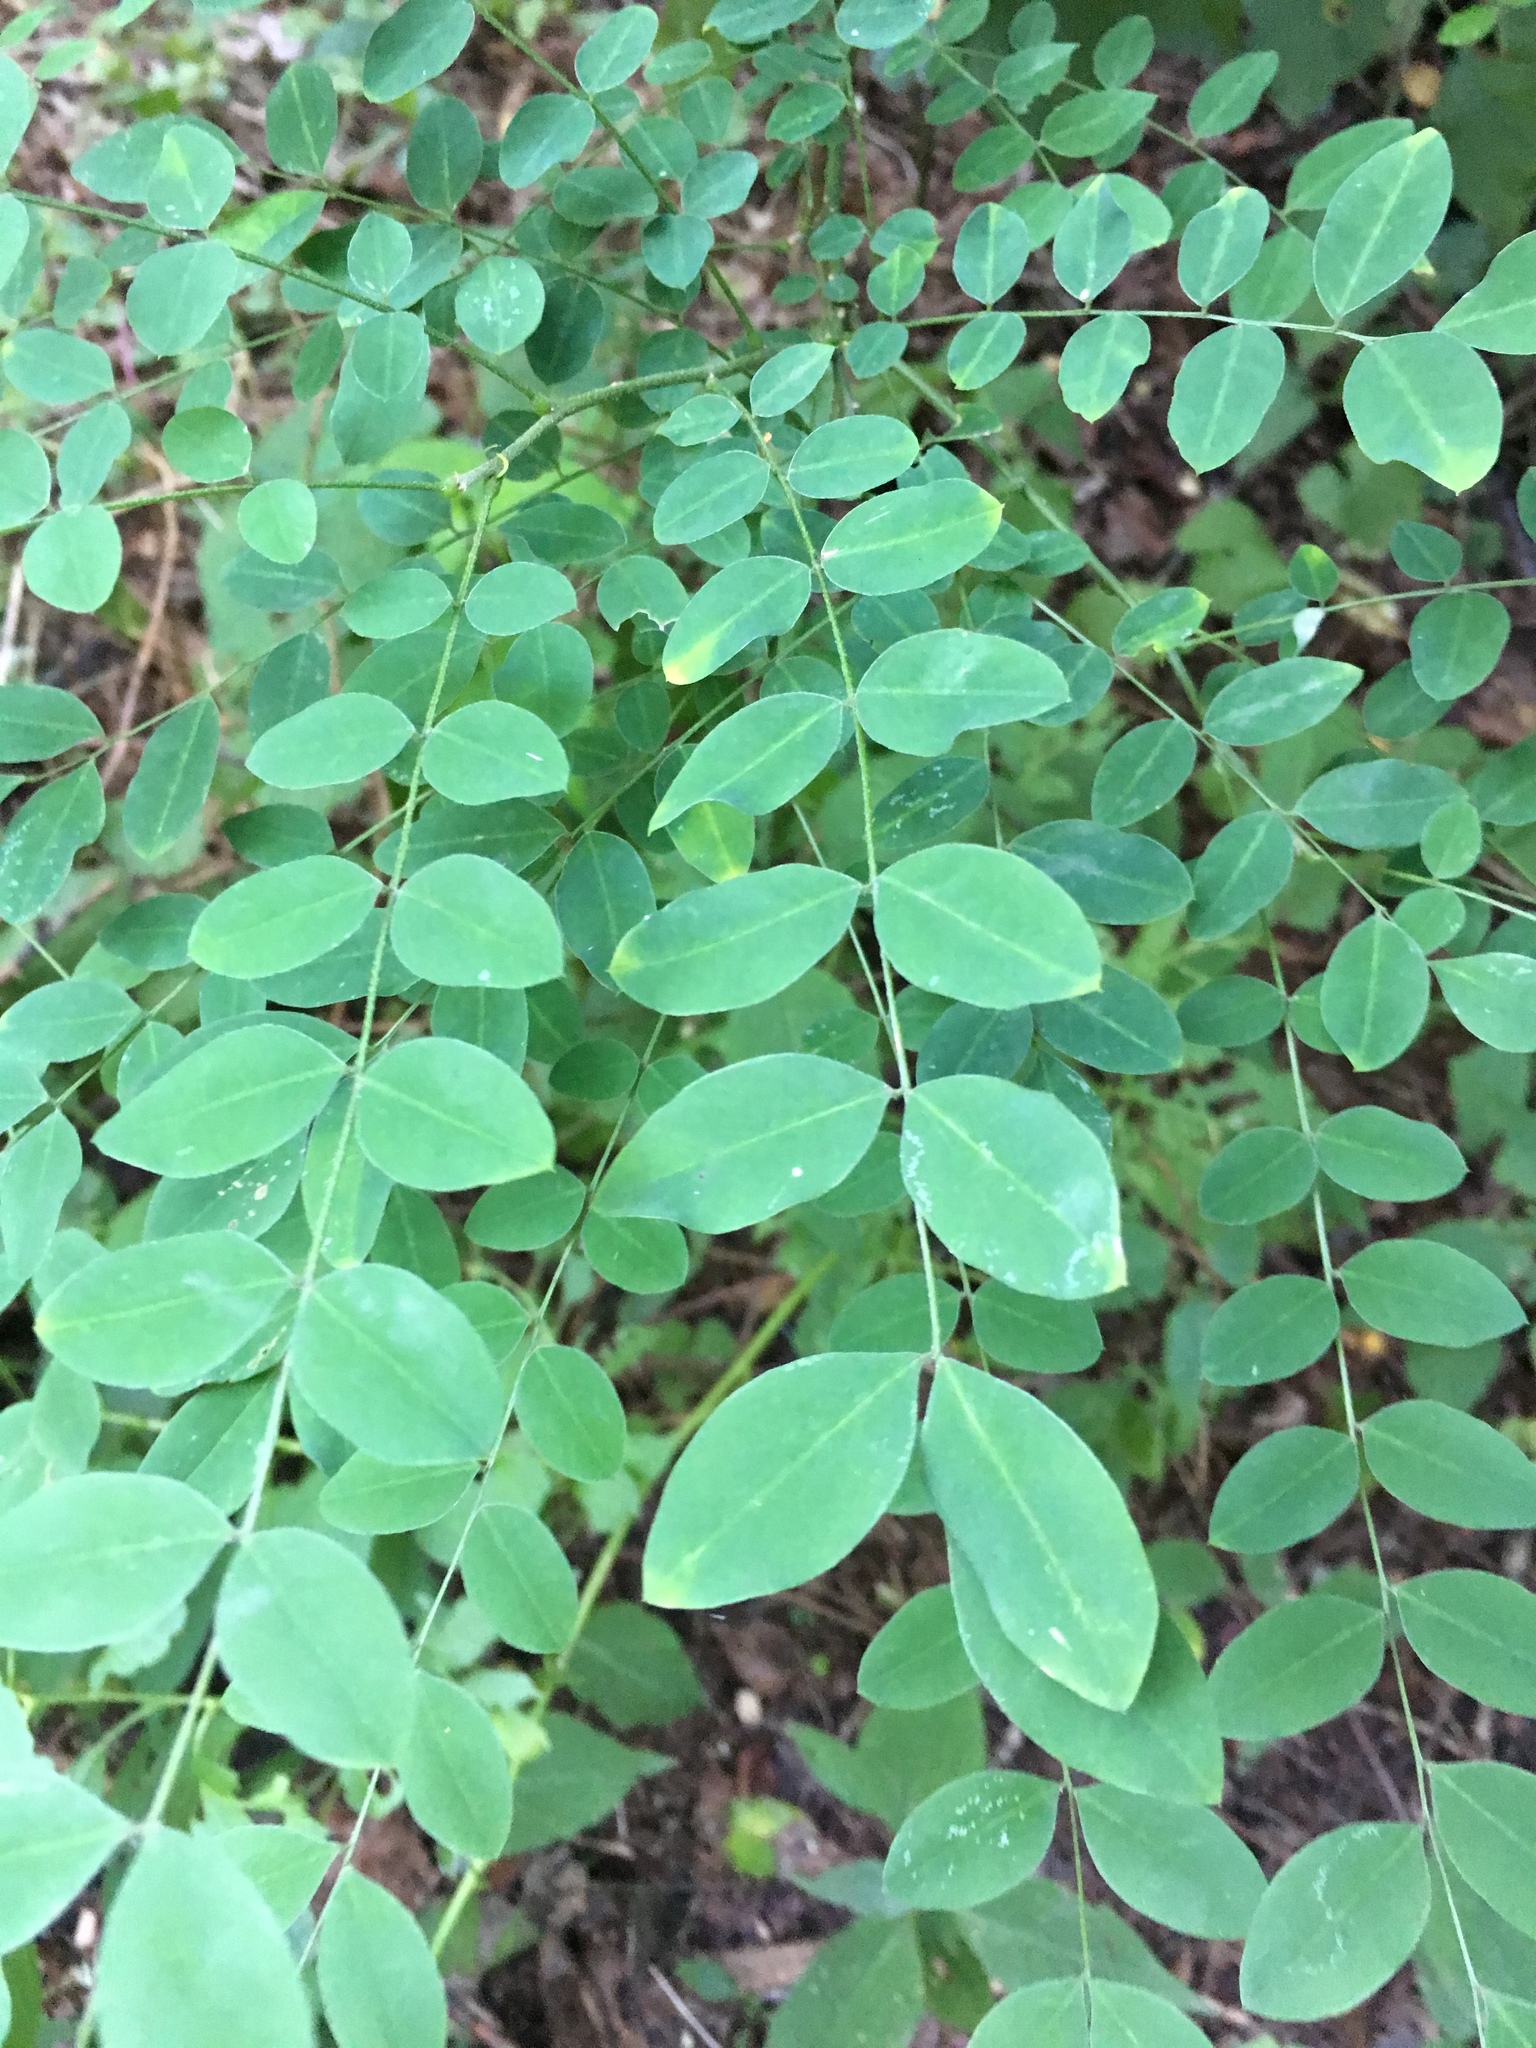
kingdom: Plantae
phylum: Tracheophyta
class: Magnoliopsida
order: Fabales
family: Fabaceae
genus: Robinia
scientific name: Robinia pseudoacacia
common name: Black locust
